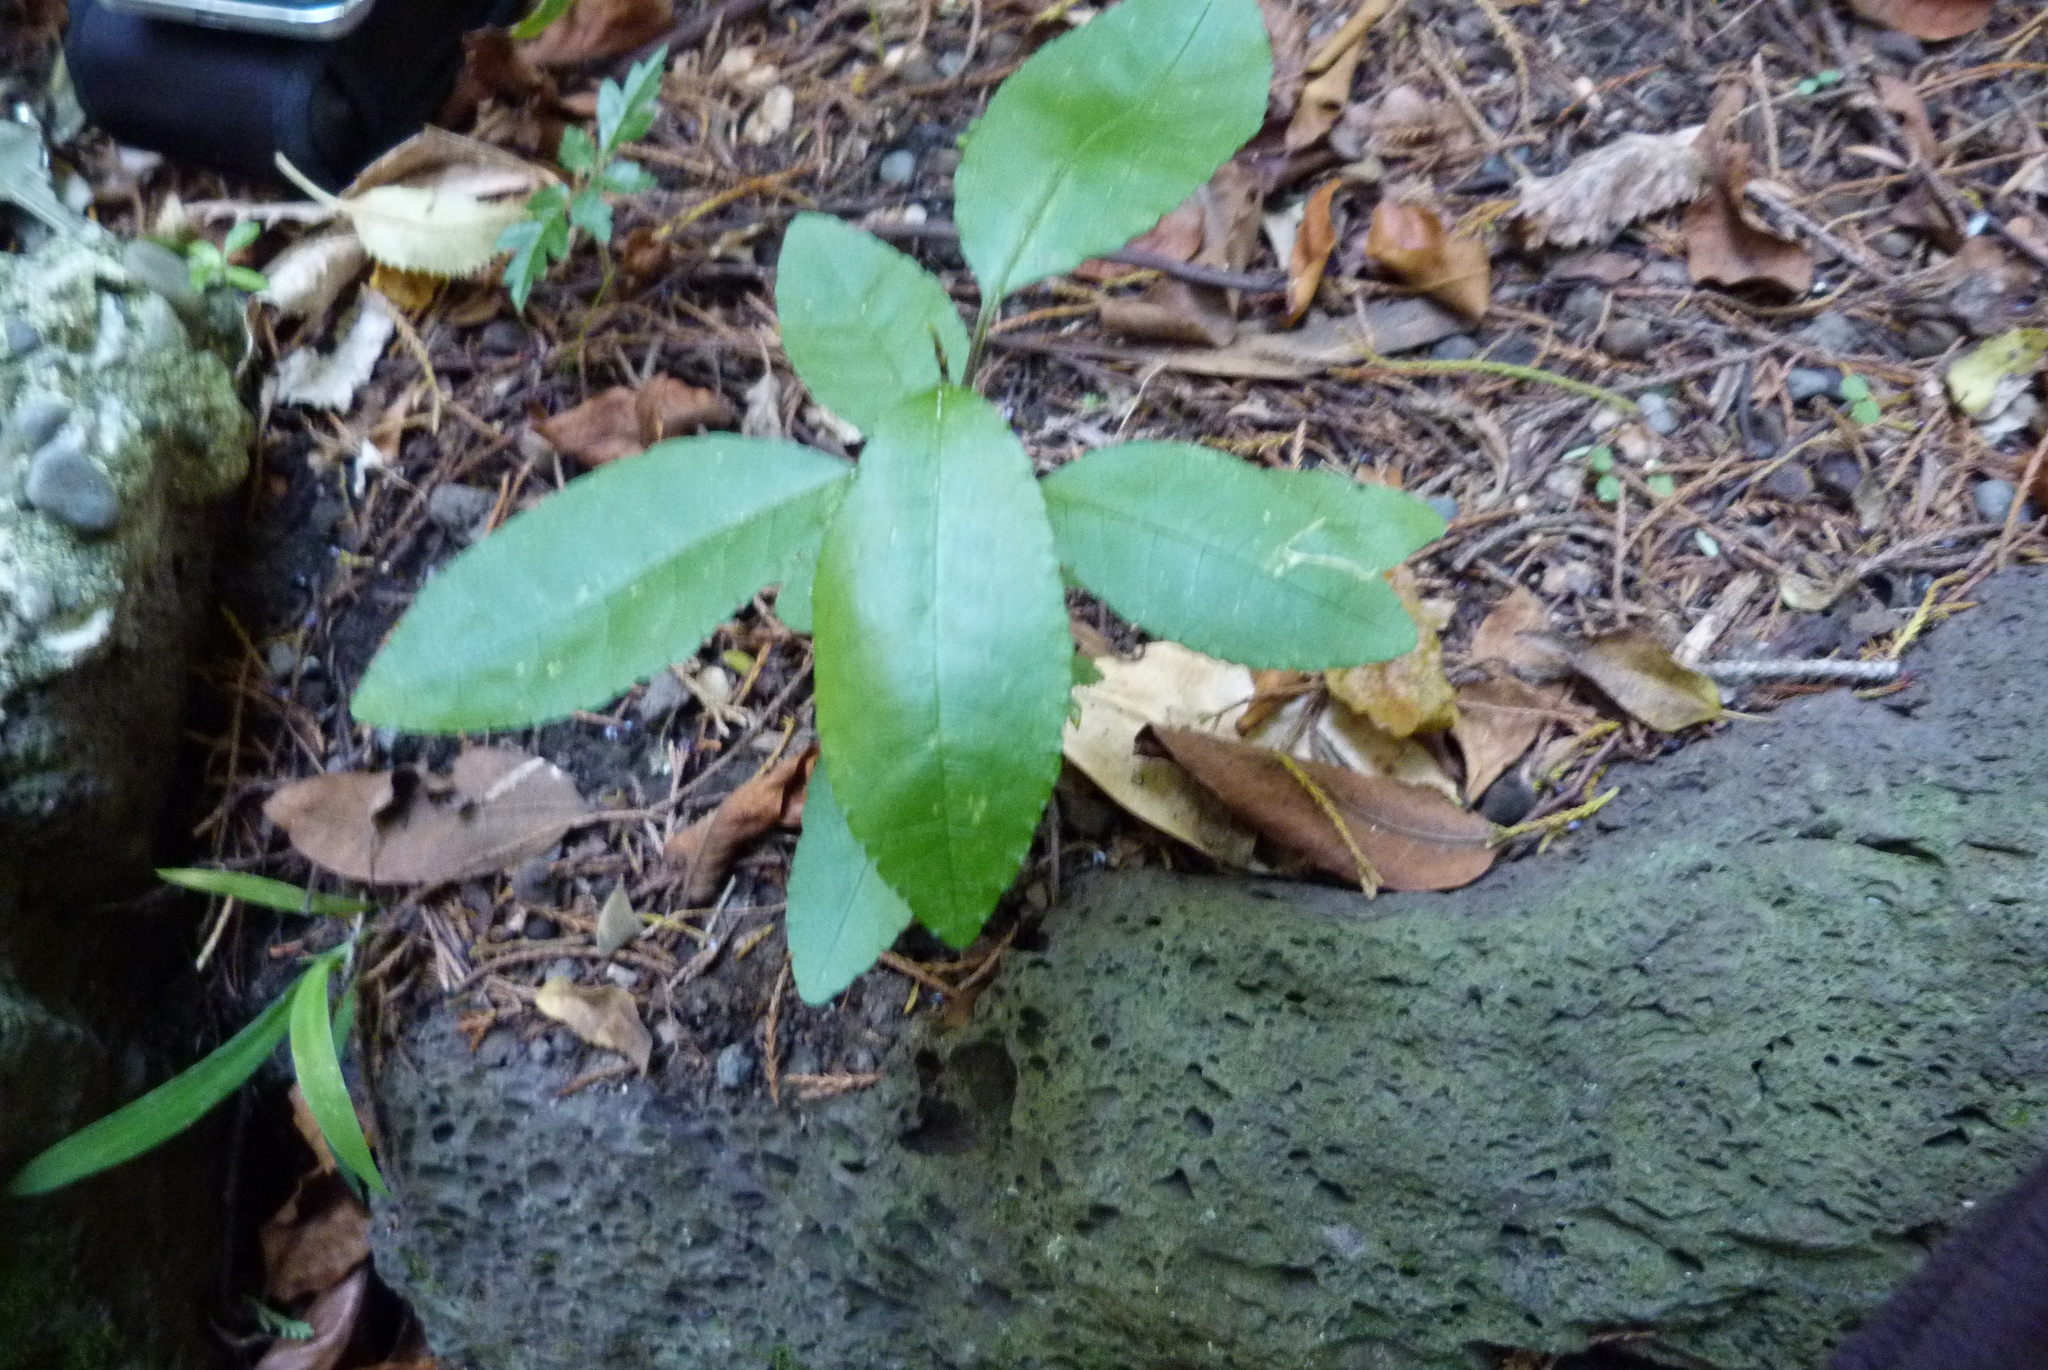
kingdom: Plantae
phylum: Tracheophyta
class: Magnoliopsida
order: Malpighiales
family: Violaceae
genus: Melicytus
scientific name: Melicytus ramiflorus
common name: Mahoe
